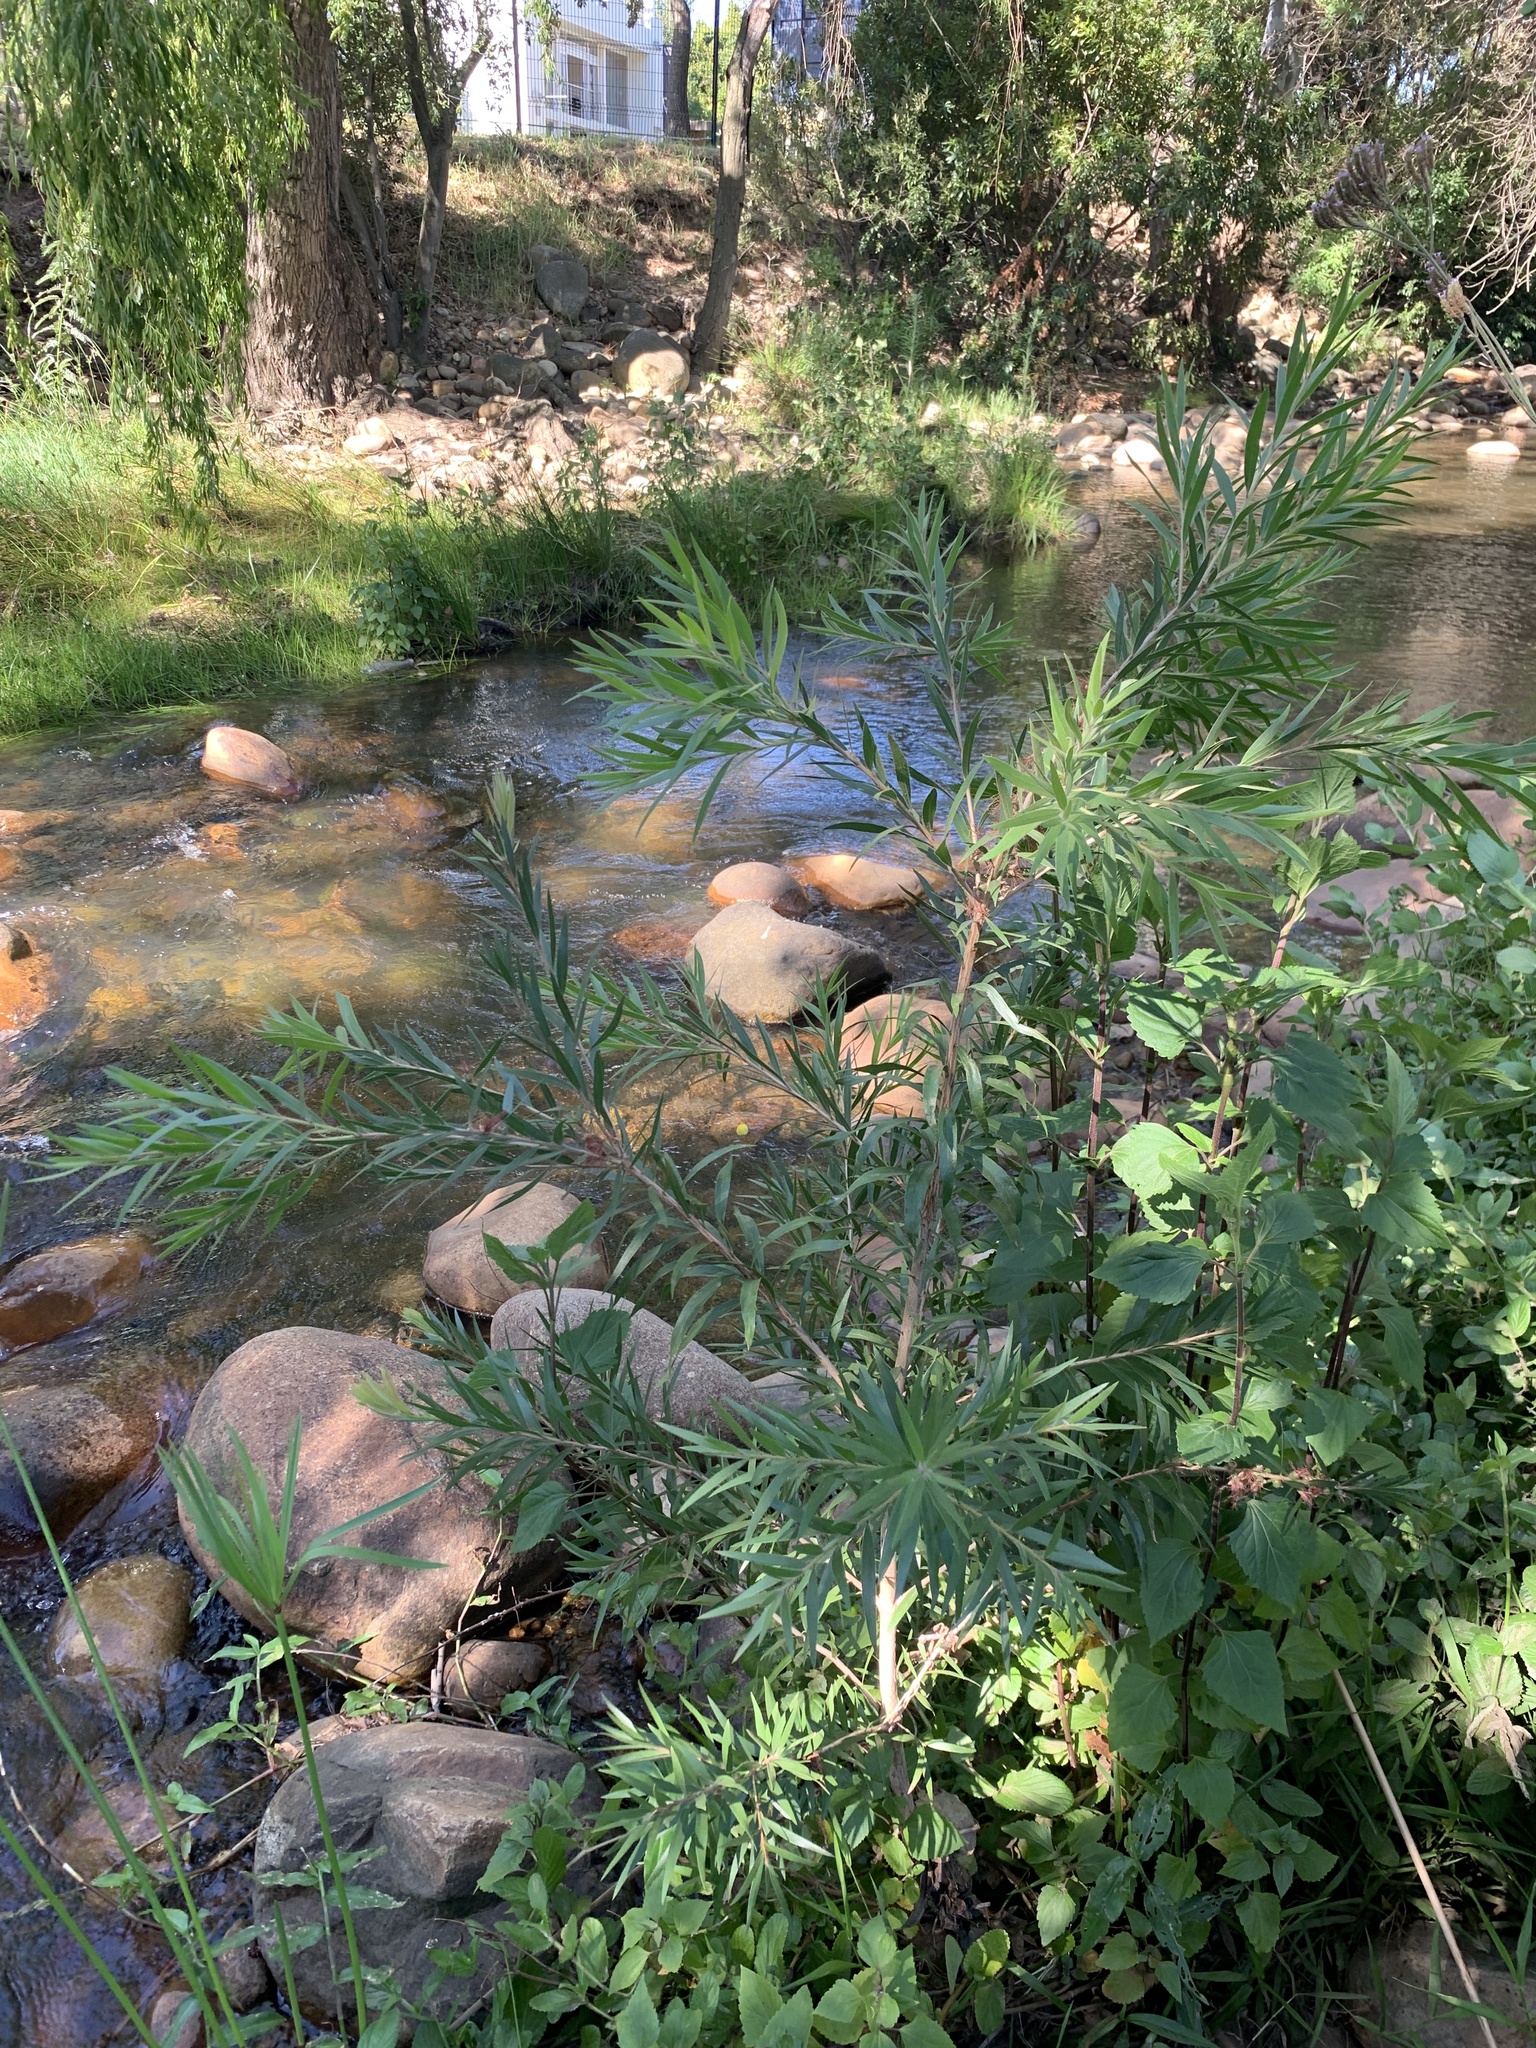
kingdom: Plantae
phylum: Tracheophyta
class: Magnoliopsida
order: Myrtales
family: Myrtaceae
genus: Callistemon
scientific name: Callistemon viminalis
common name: Drooping bottlebrush
